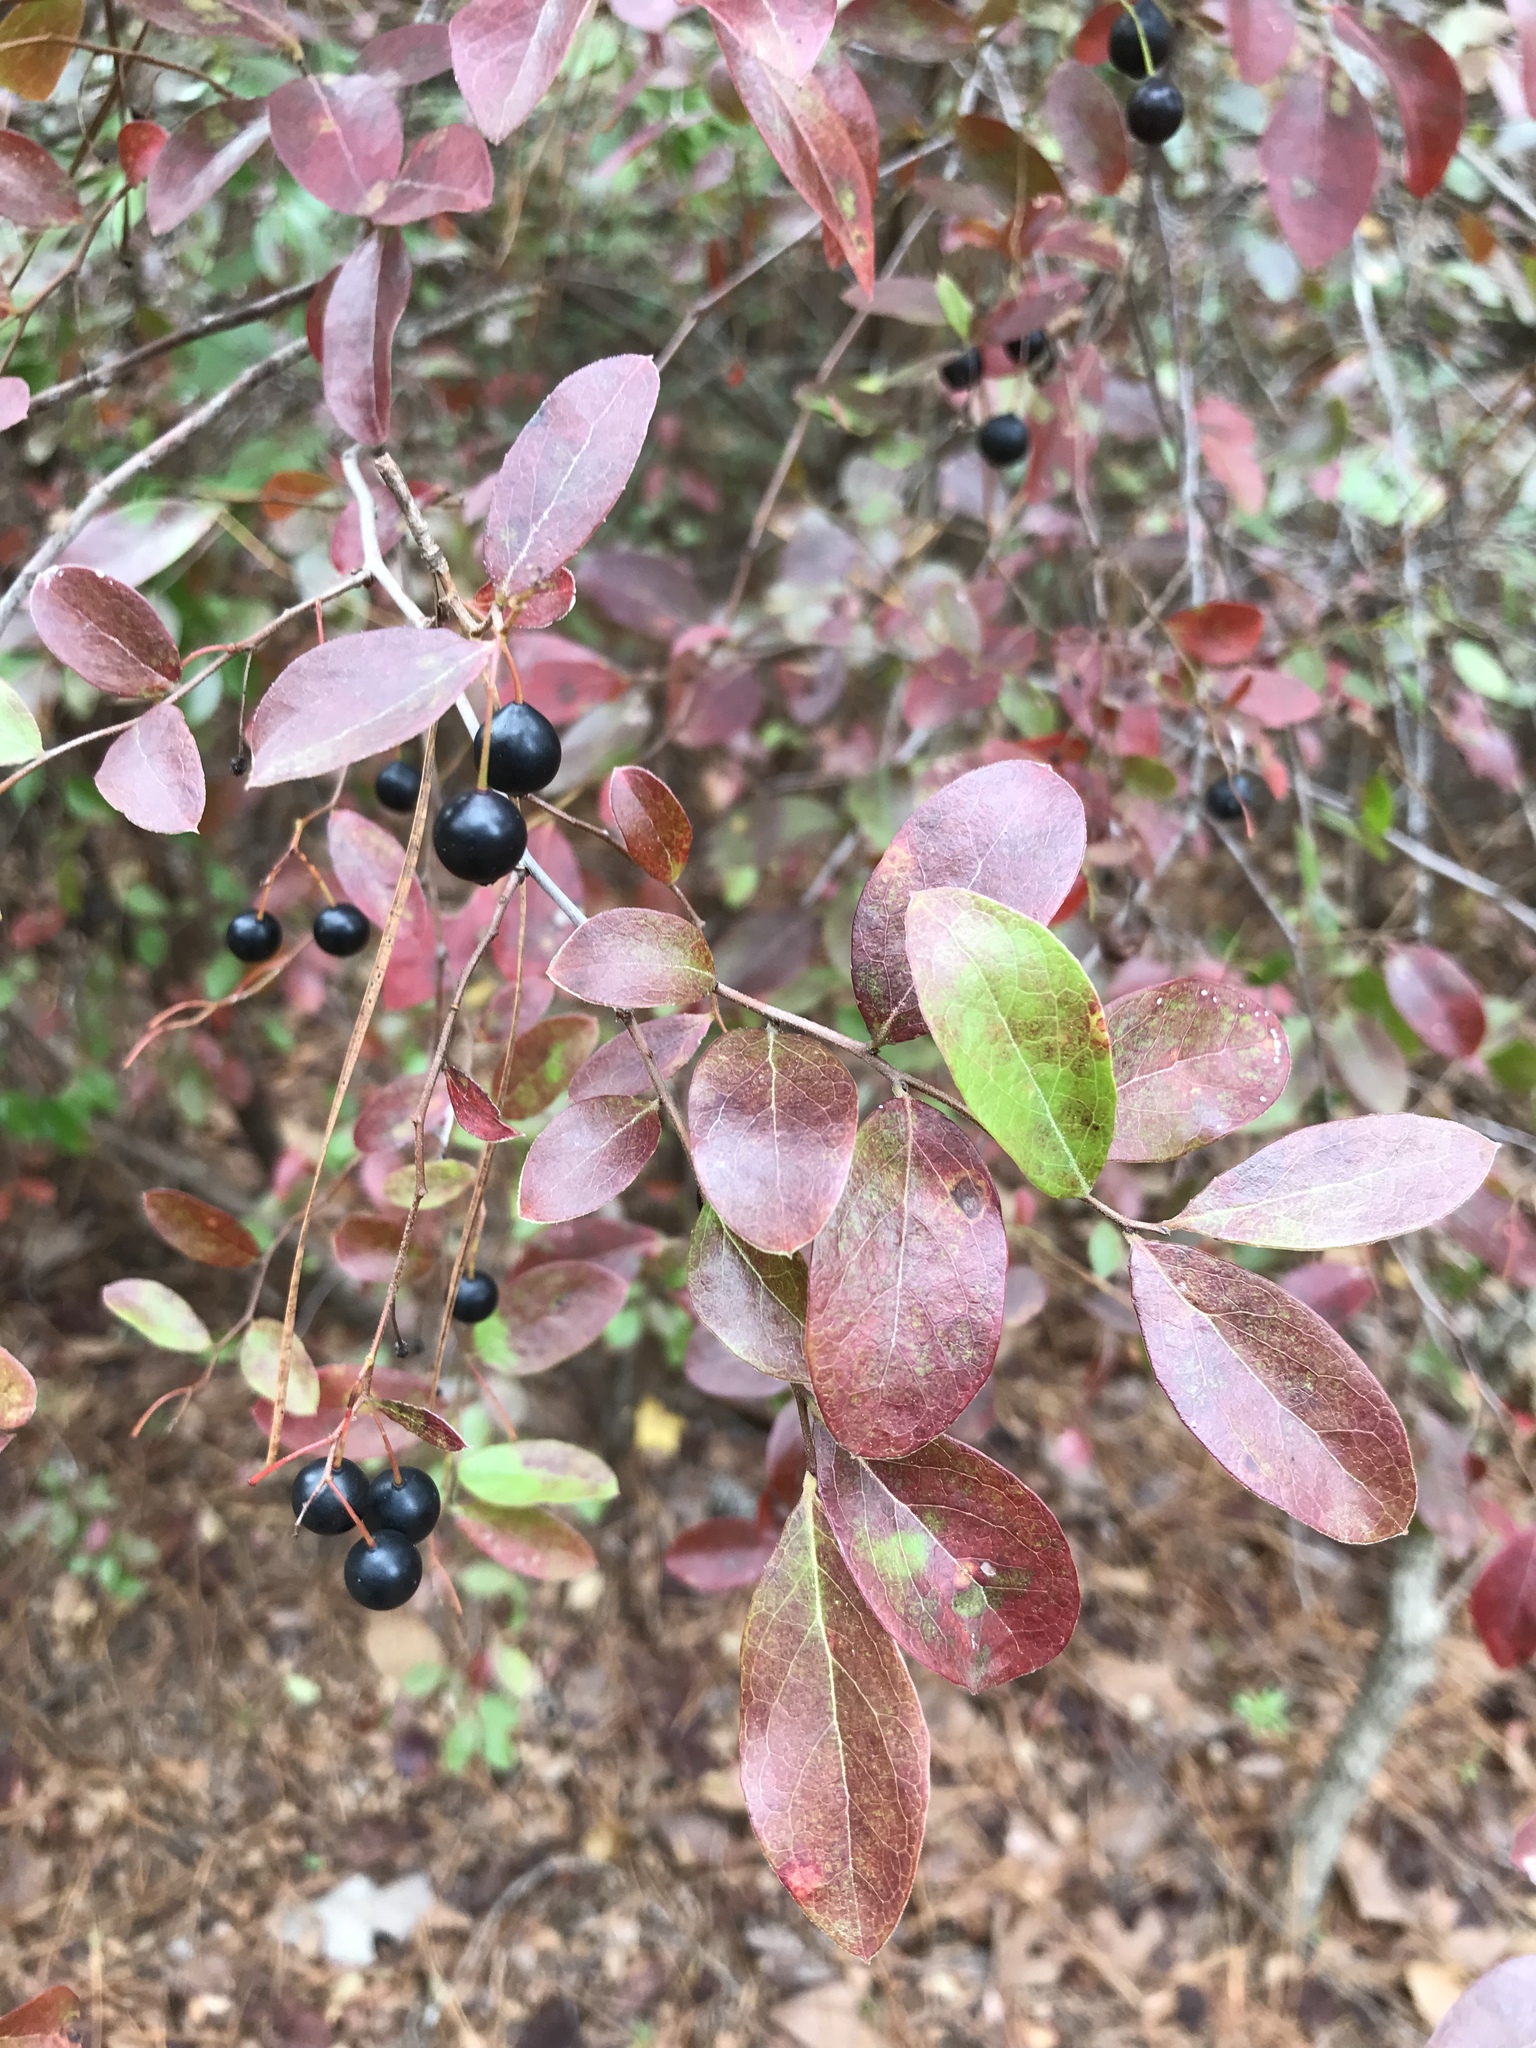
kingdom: Plantae
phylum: Tracheophyta
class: Magnoliopsida
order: Ericales
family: Ericaceae
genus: Vaccinium
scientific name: Vaccinium arboreum
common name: Farkleberry
